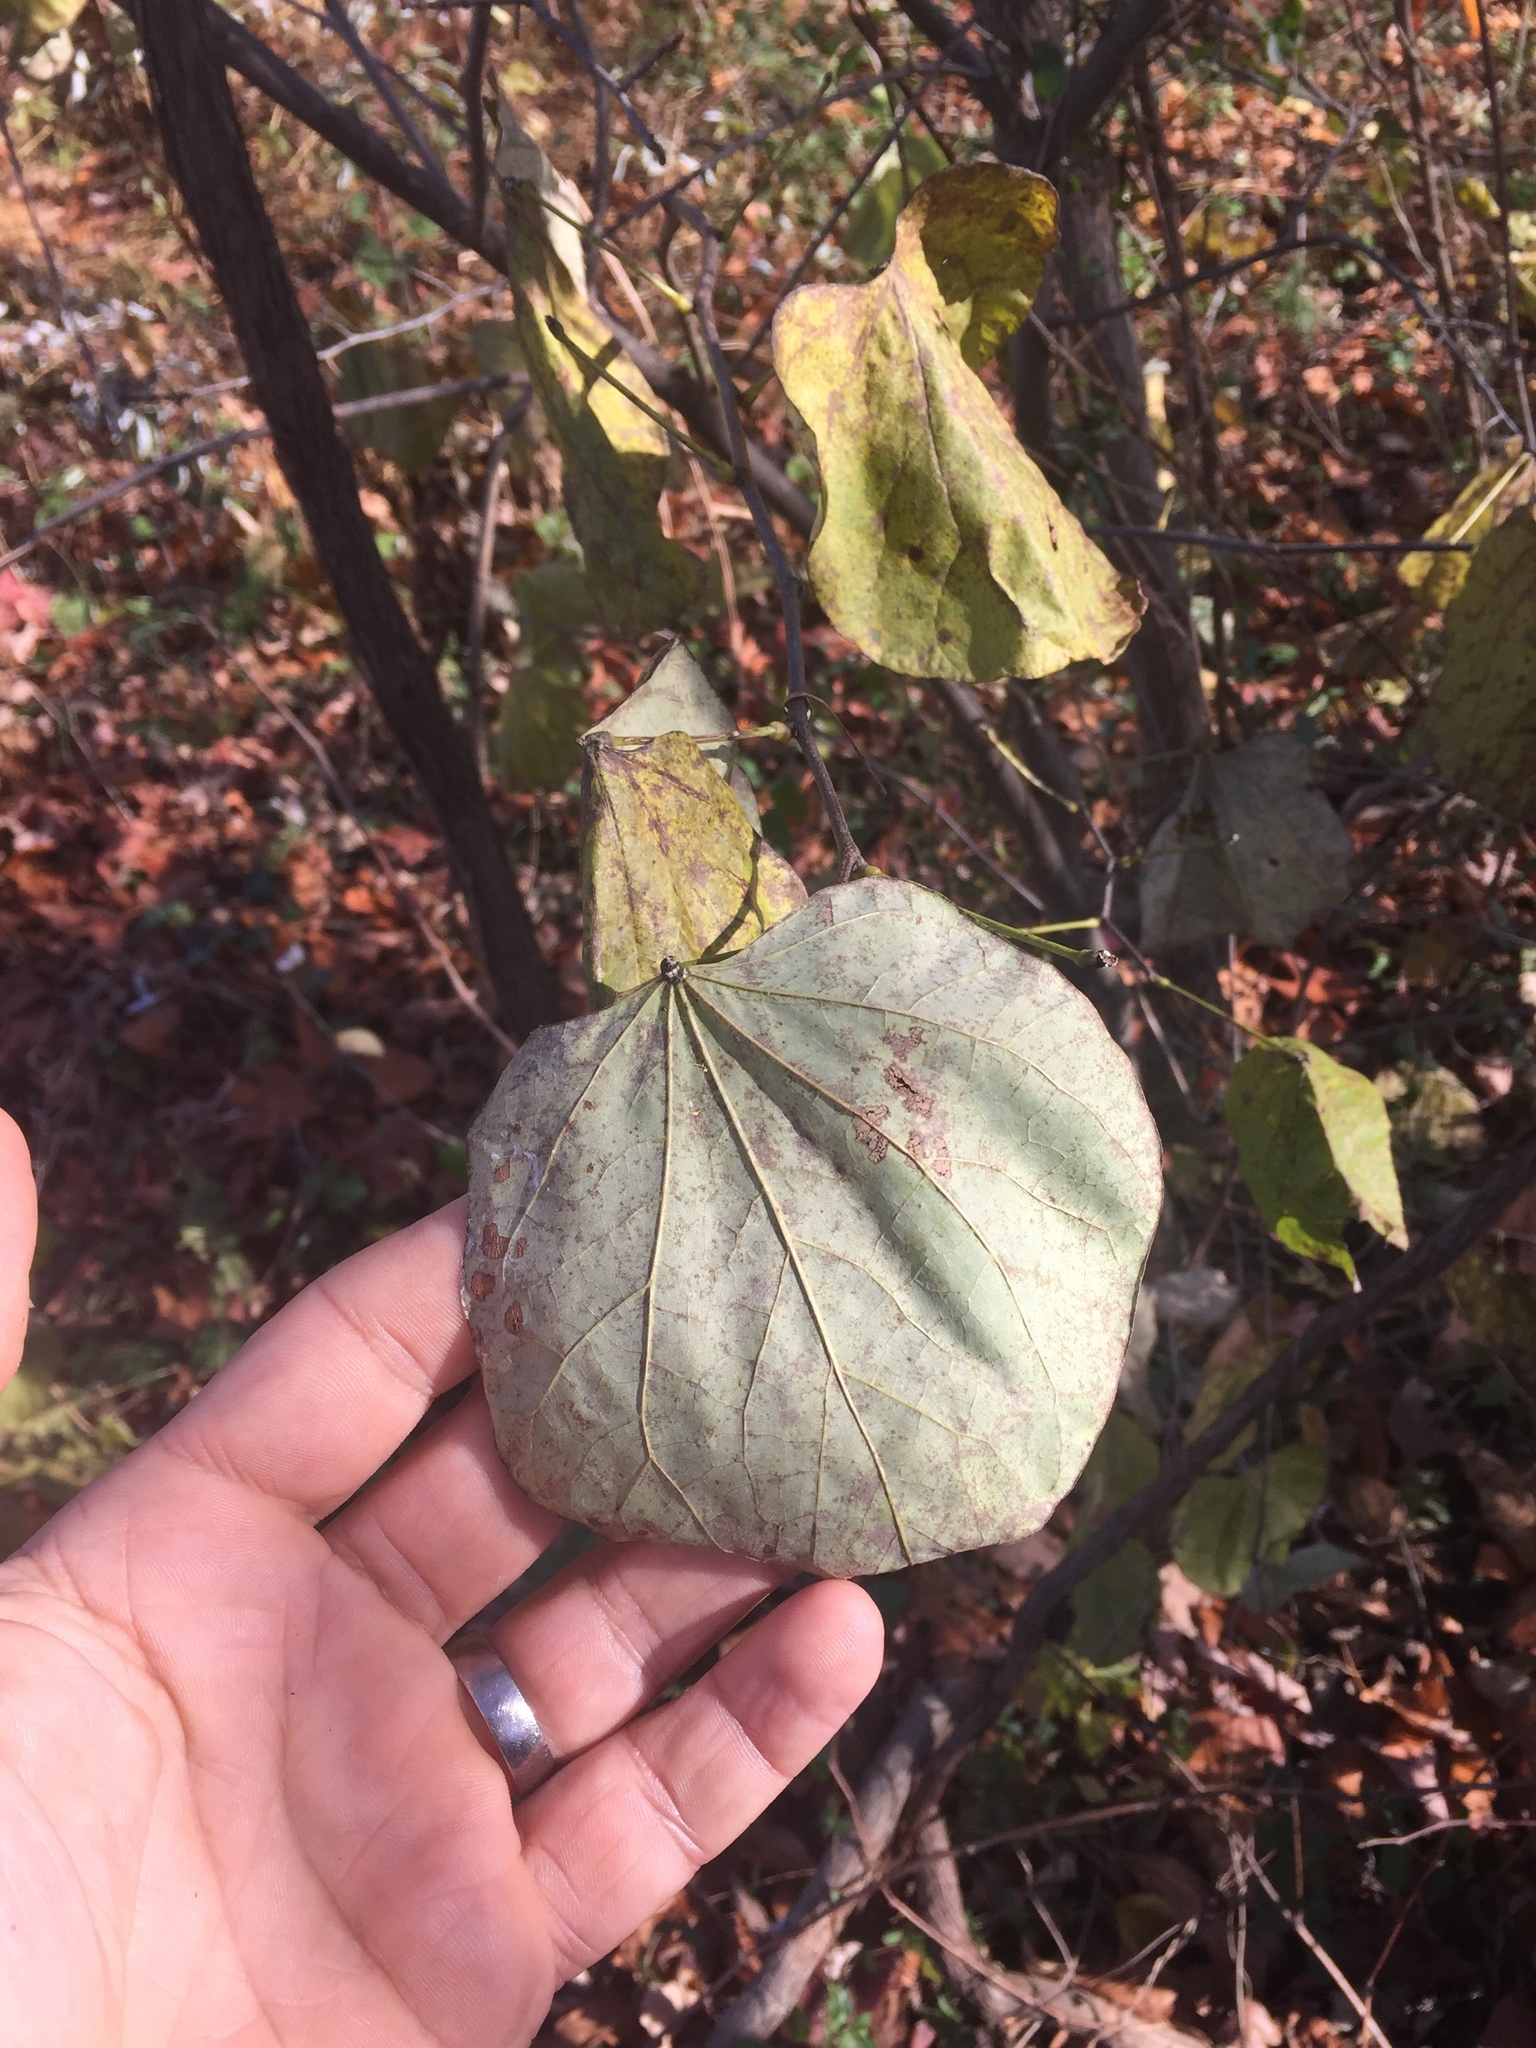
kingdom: Plantae
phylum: Tracheophyta
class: Magnoliopsida
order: Fabales
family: Fabaceae
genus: Cercis
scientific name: Cercis canadensis
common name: Eastern redbud
